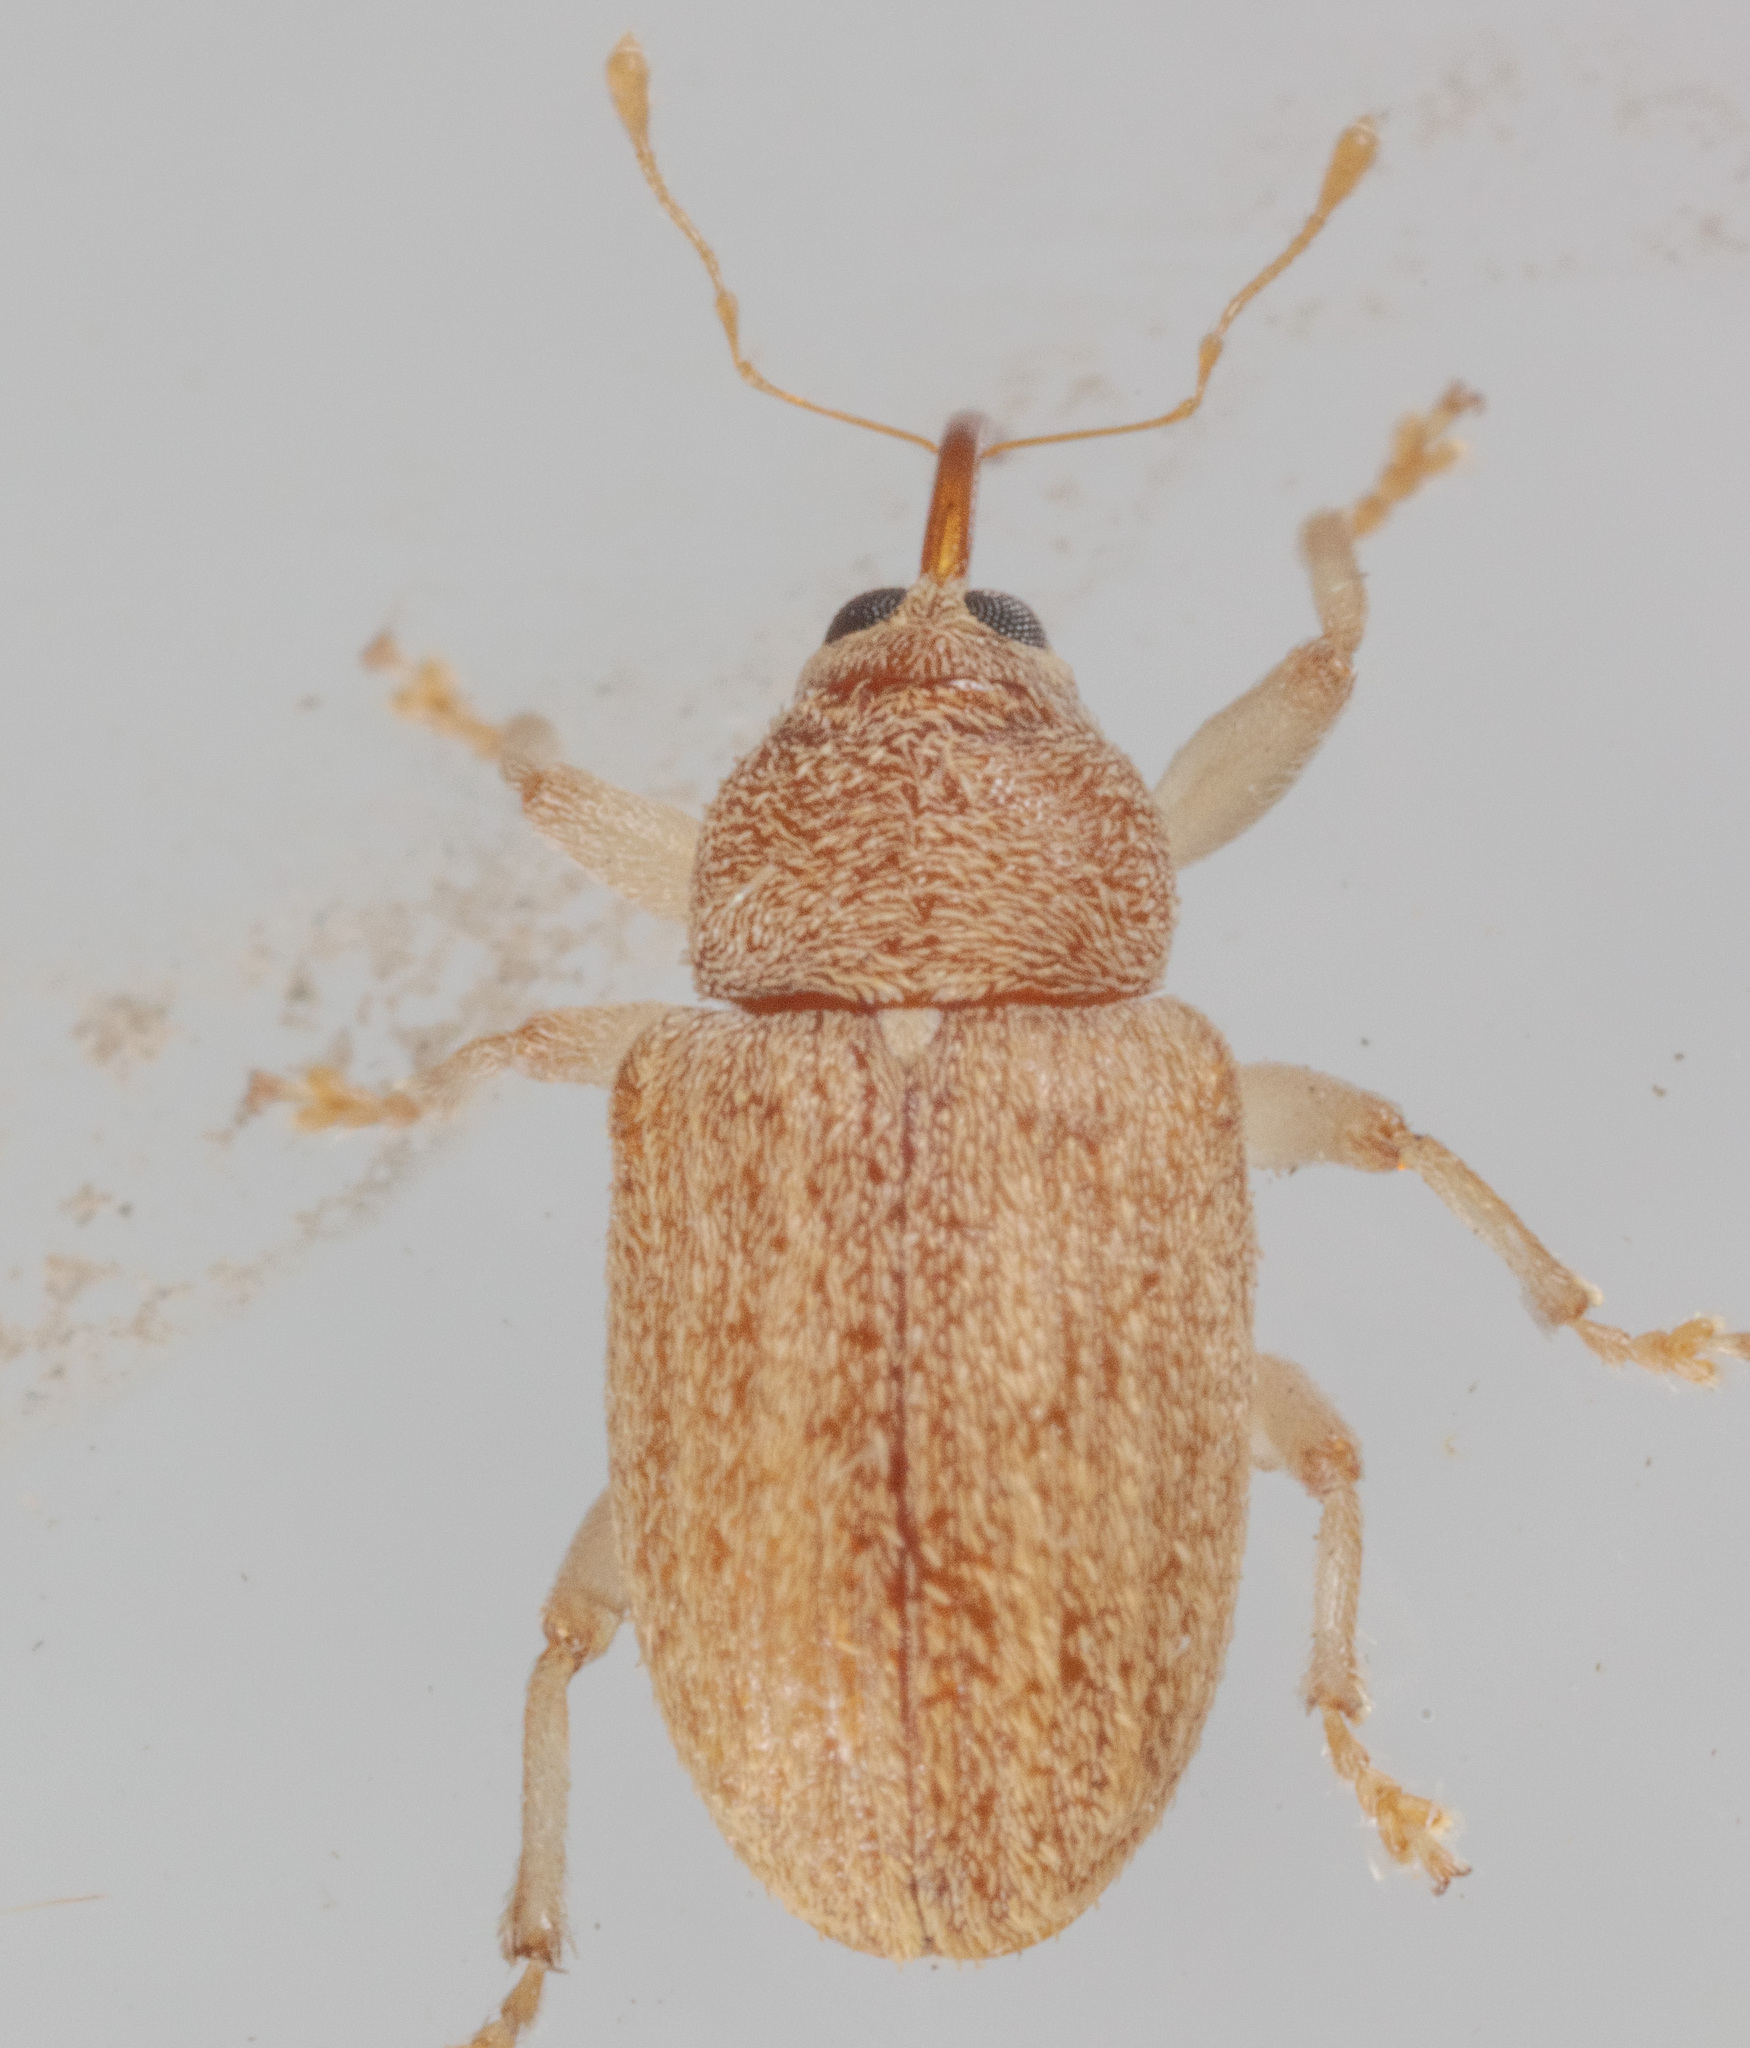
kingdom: Animalia
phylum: Arthropoda
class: Insecta
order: Coleoptera
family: Curculionidae
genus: Lignyodes
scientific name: Lignyodes helvolus
